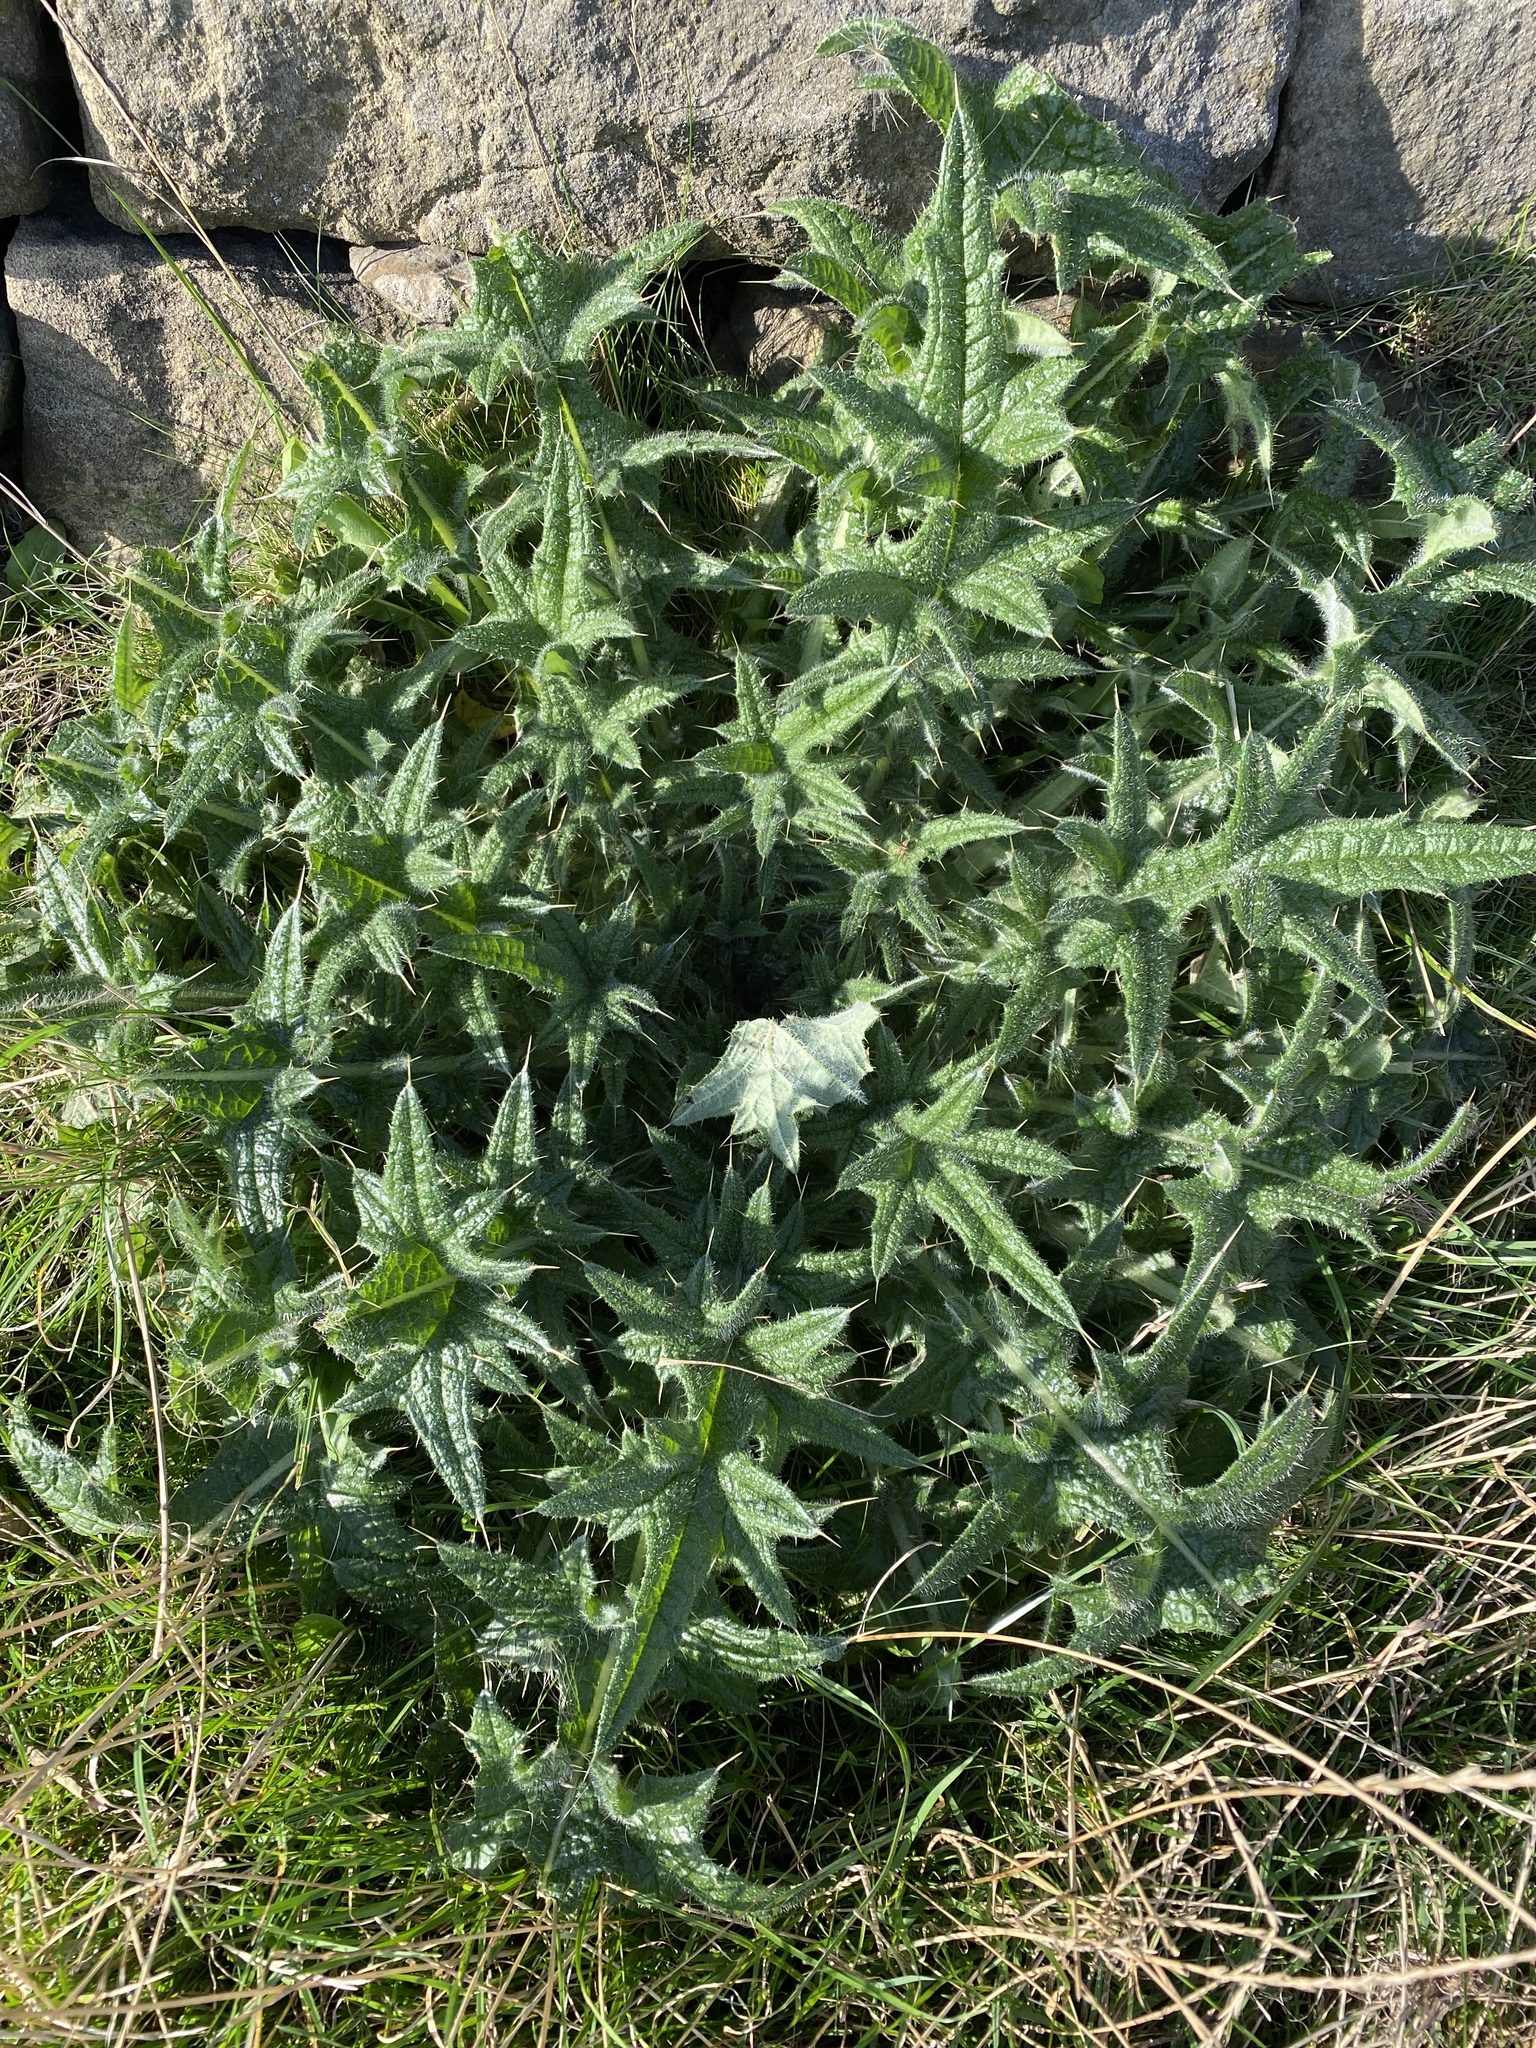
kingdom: Plantae
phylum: Tracheophyta
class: Magnoliopsida
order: Asterales
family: Asteraceae
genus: Cirsium
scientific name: Cirsium vulgare
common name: Bull thistle
